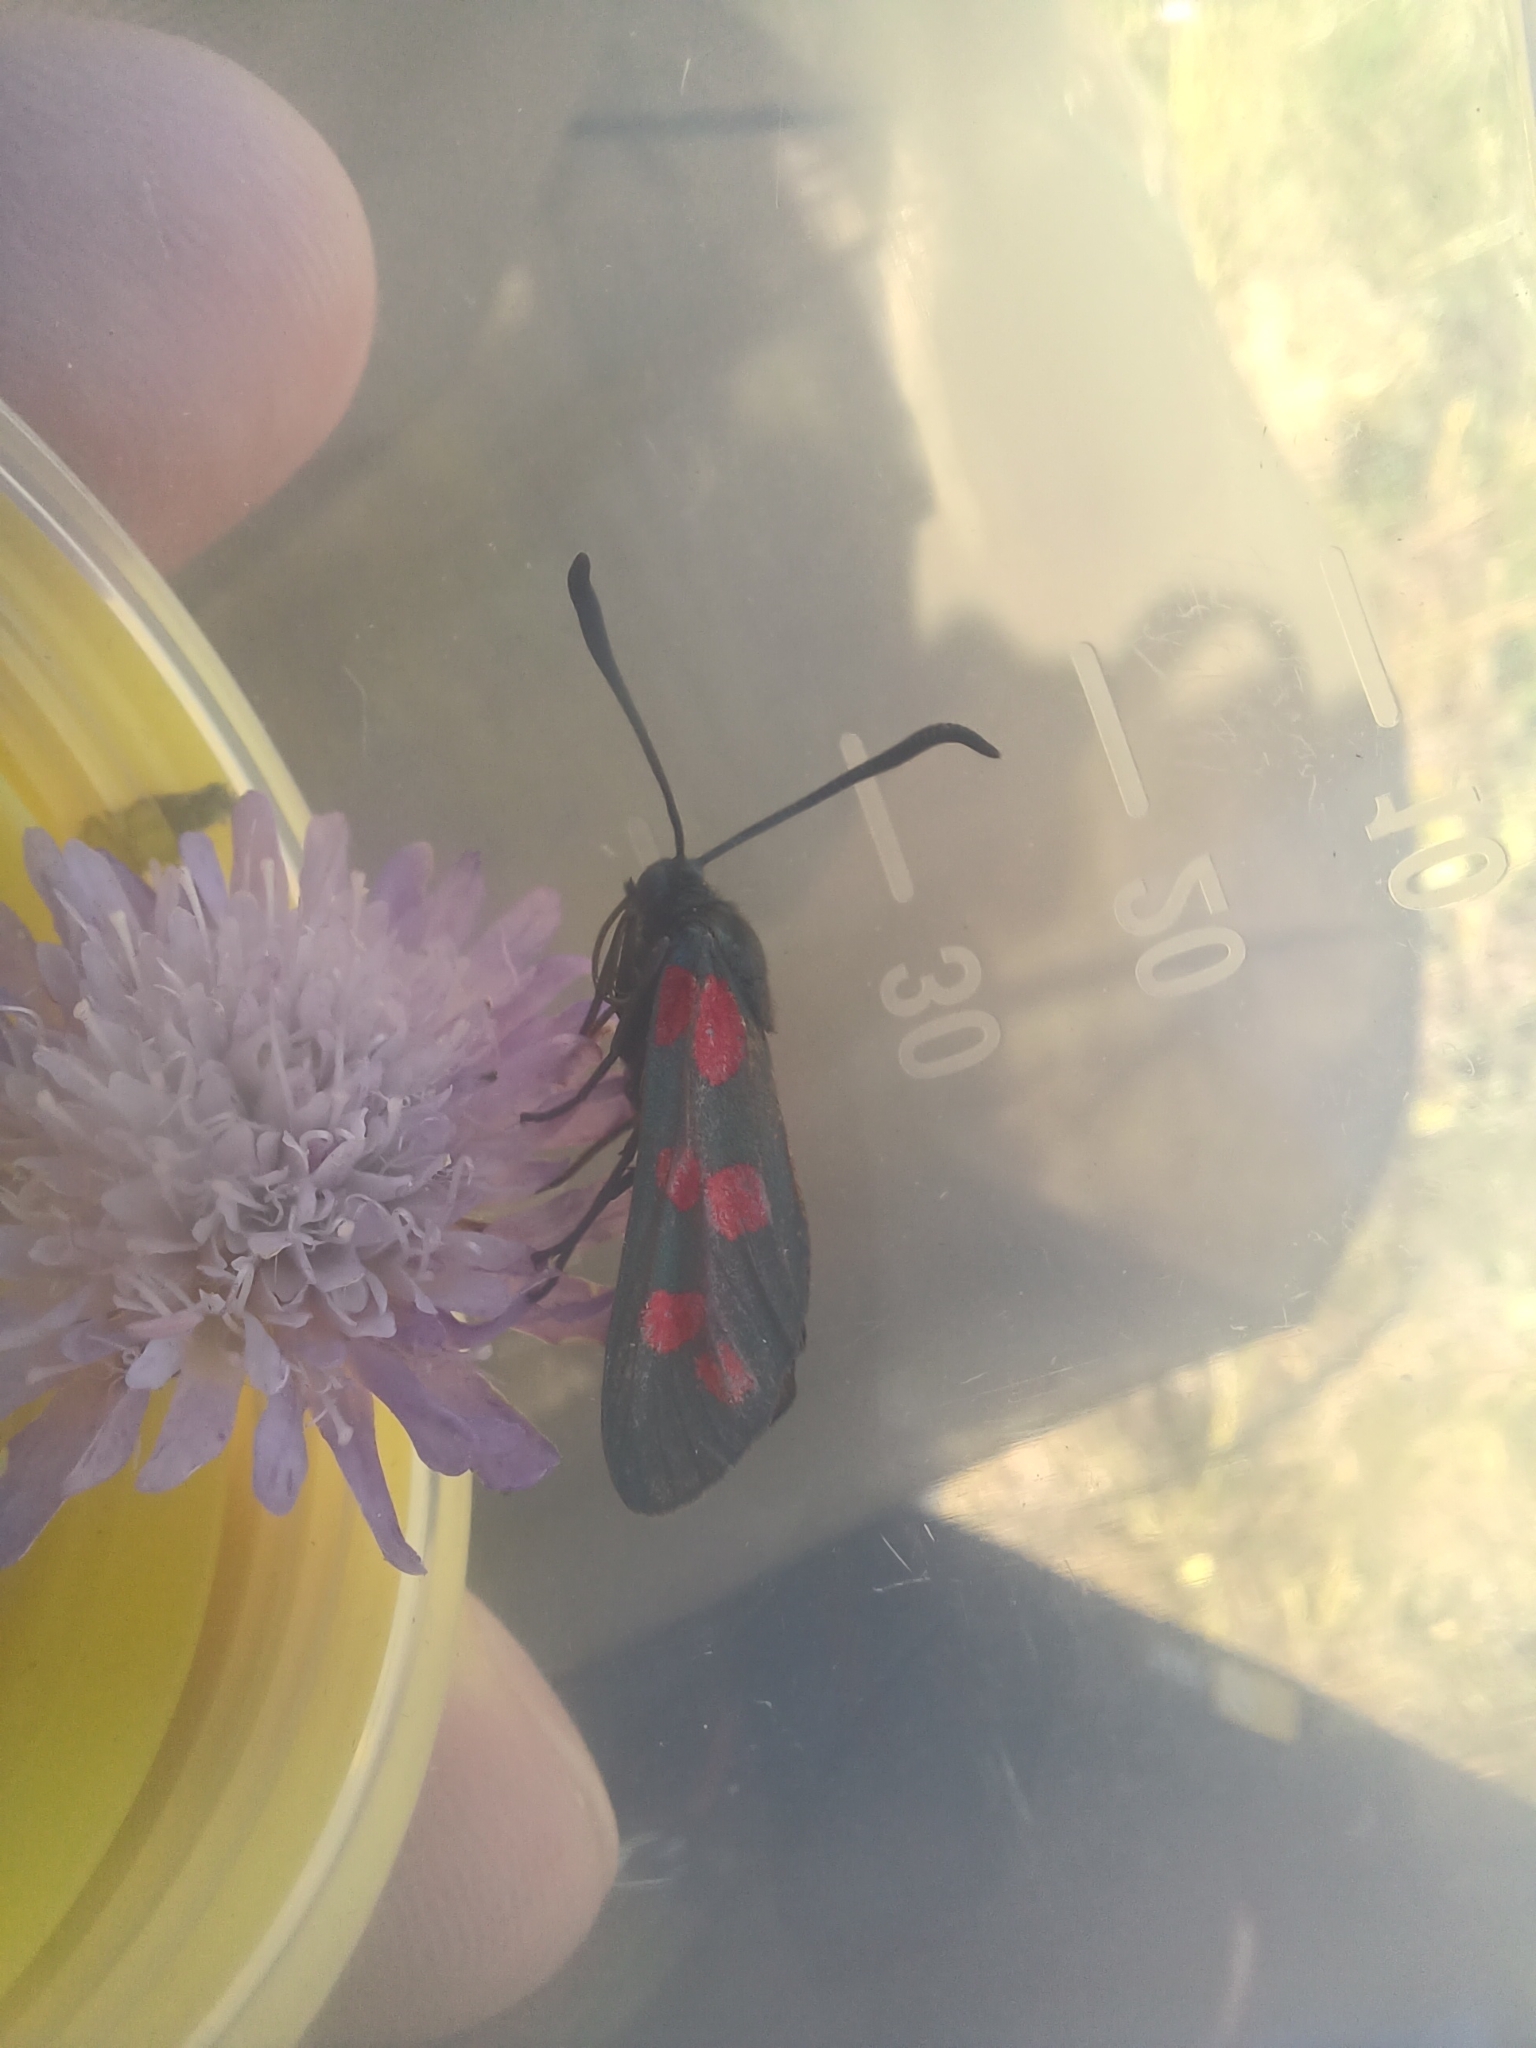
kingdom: Animalia
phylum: Arthropoda
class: Insecta
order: Lepidoptera
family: Zygaenidae
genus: Zygaena
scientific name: Zygaena filipendulae
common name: Six-spot burnet
